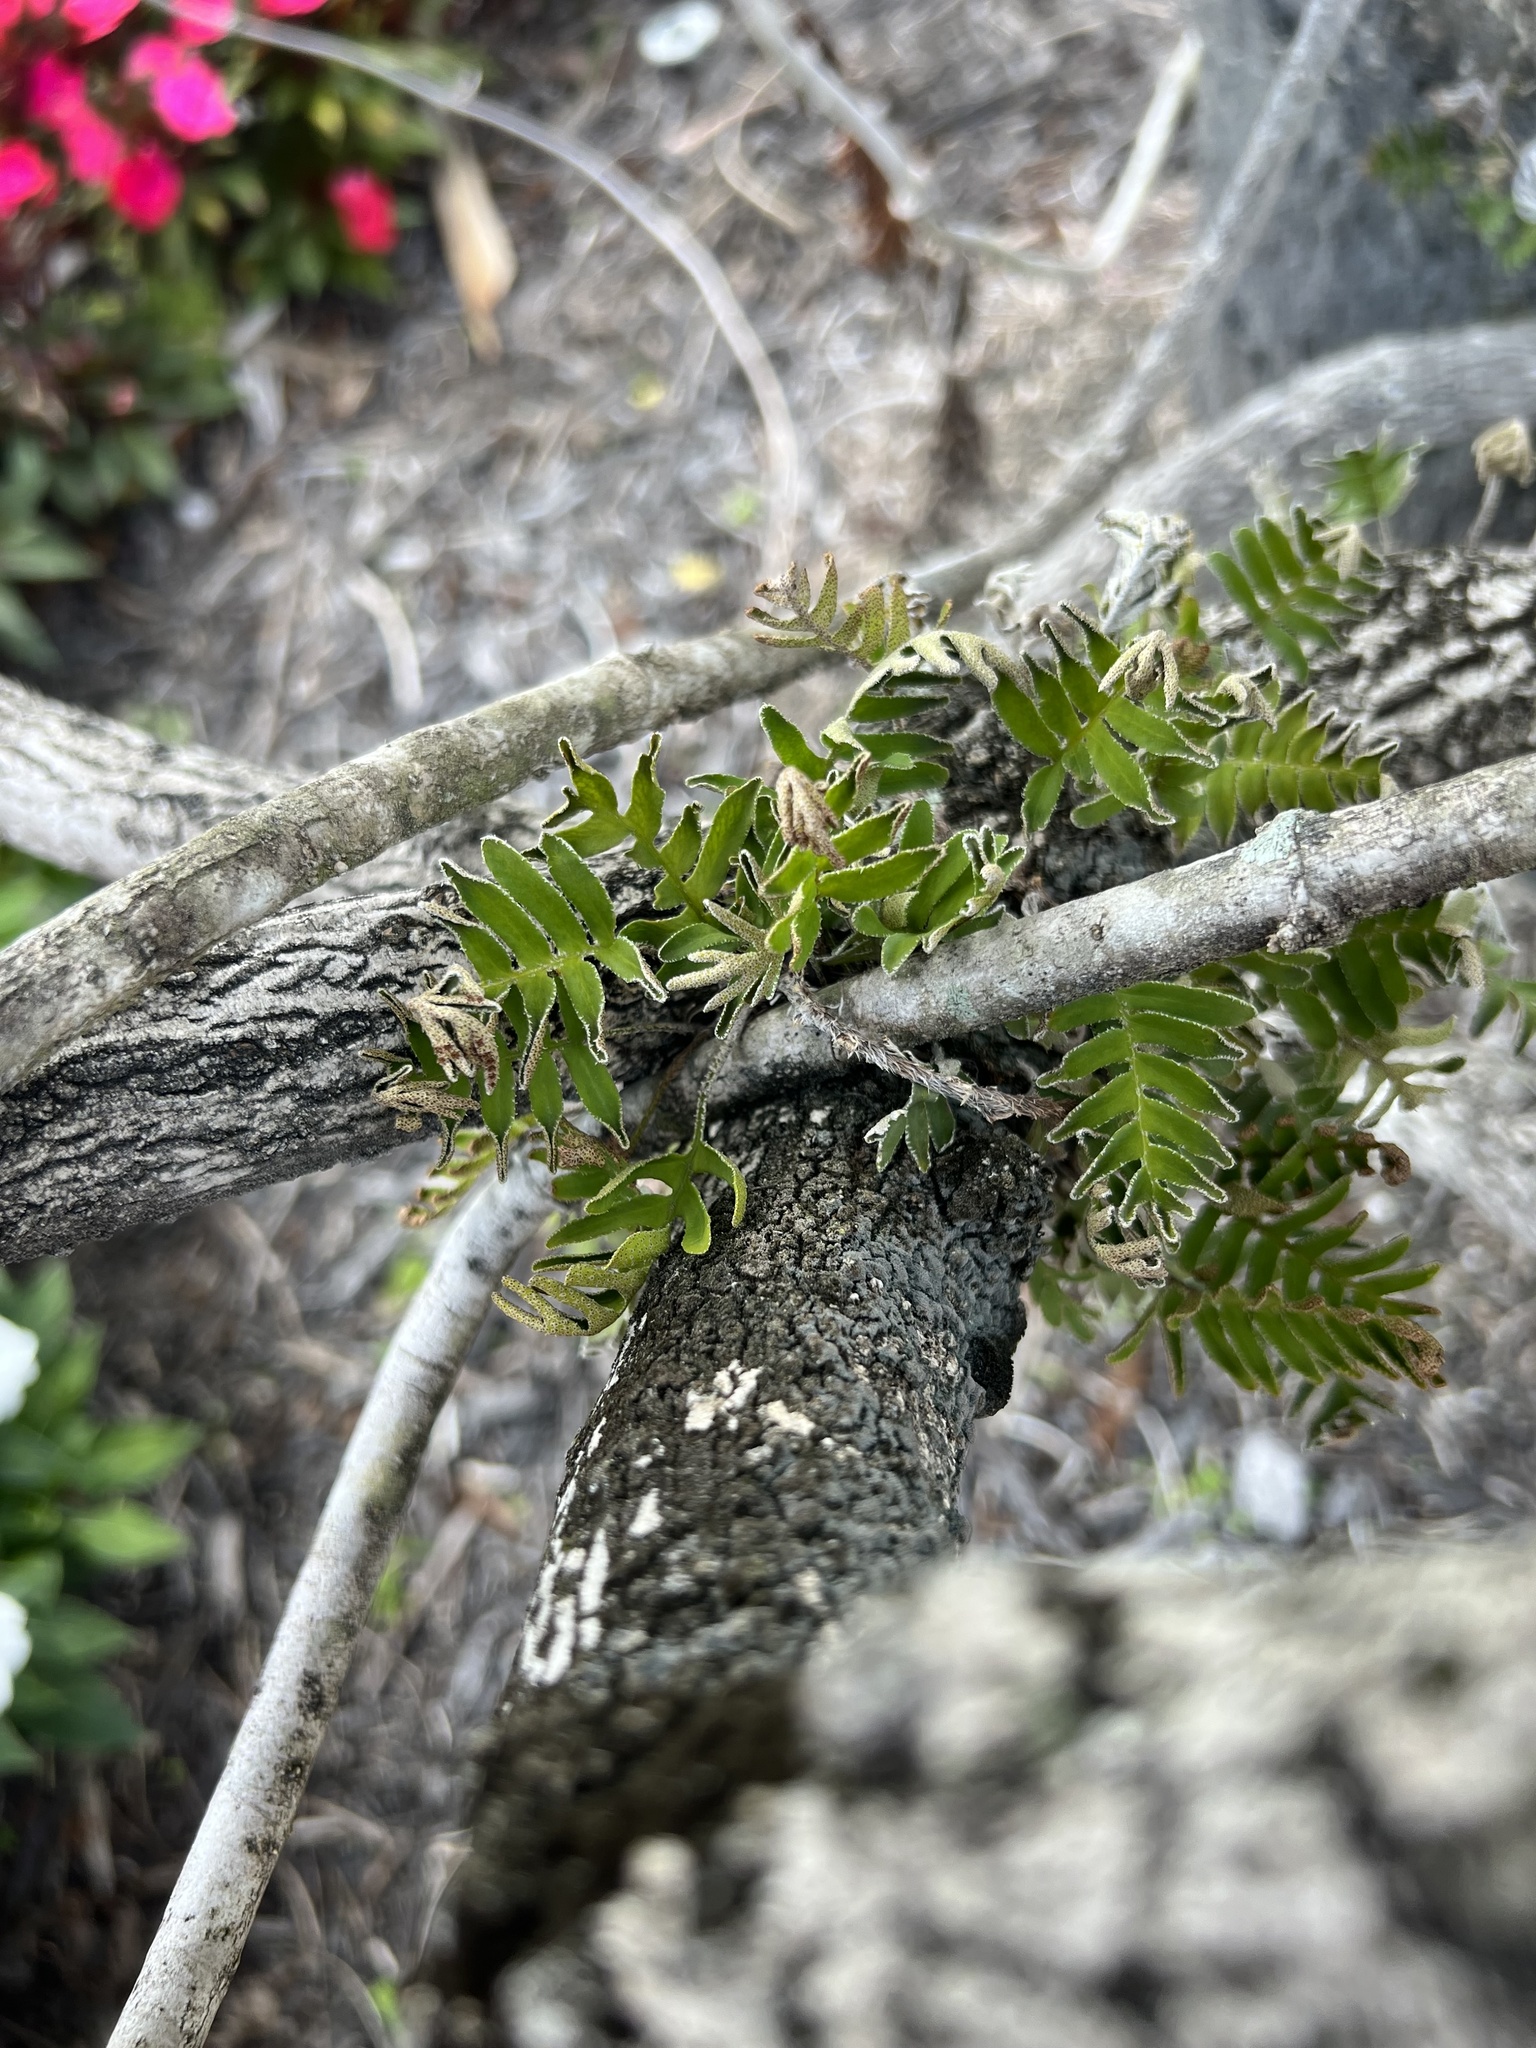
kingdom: Plantae
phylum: Tracheophyta
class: Polypodiopsida
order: Polypodiales
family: Polypodiaceae
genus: Pleopeltis
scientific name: Pleopeltis michauxiana
